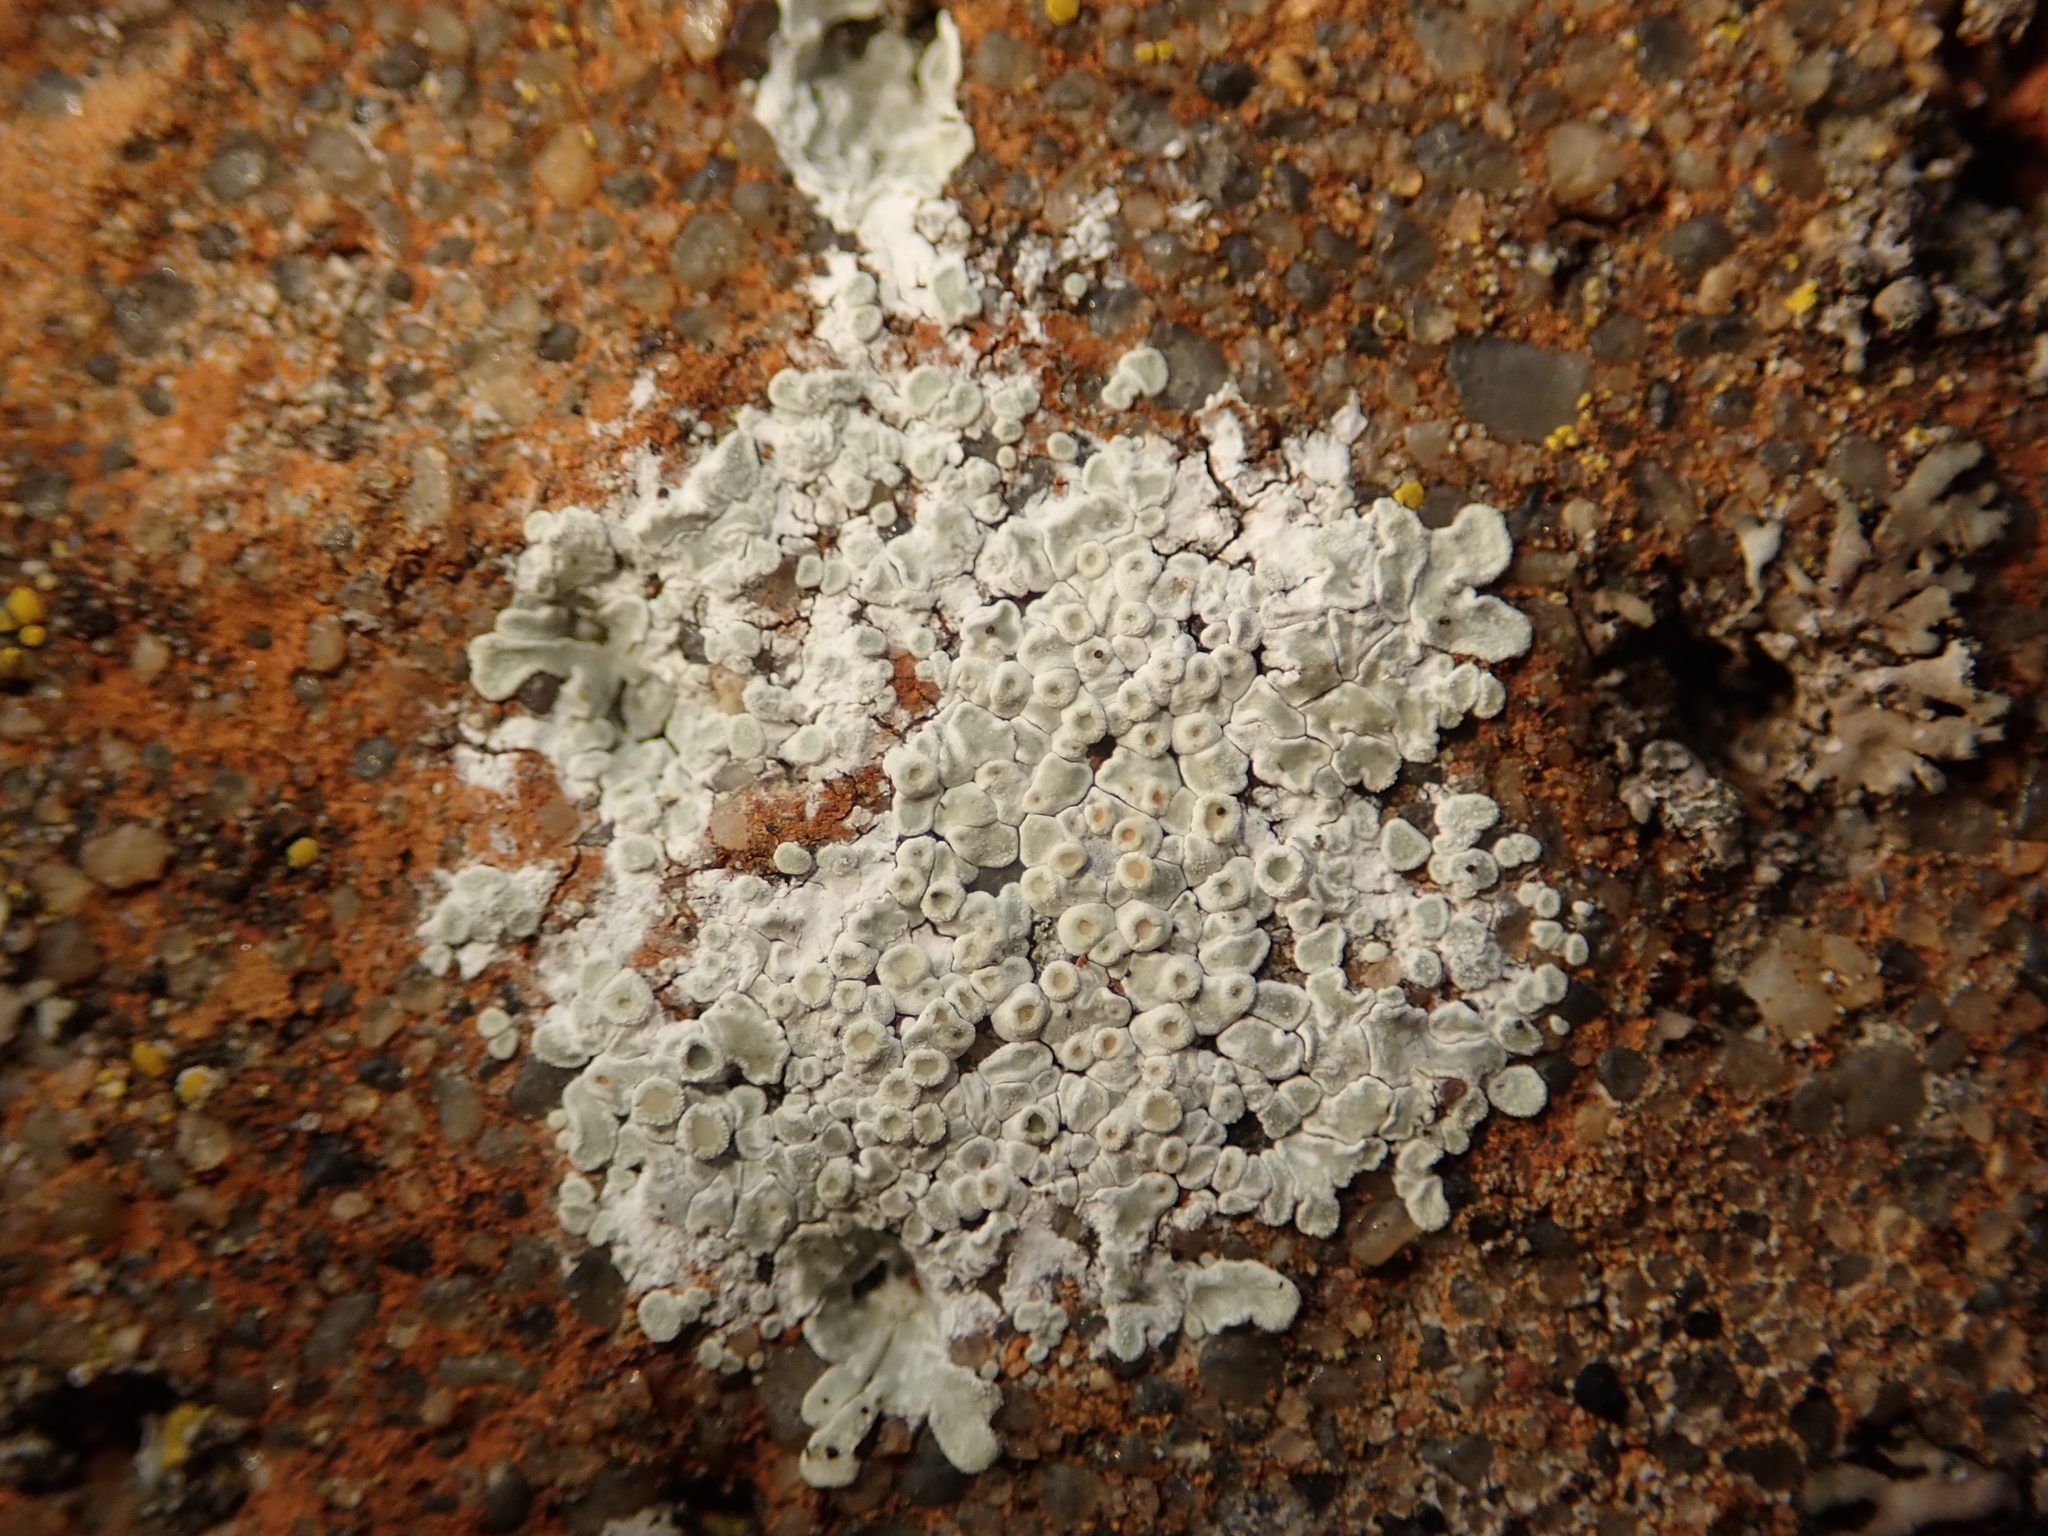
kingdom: Fungi
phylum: Ascomycota
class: Lecanoromycetes
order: Lecanorales
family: Lecanoraceae
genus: Protoparmeliopsis
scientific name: Protoparmeliopsis muralis
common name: Stonewall rim lichen
